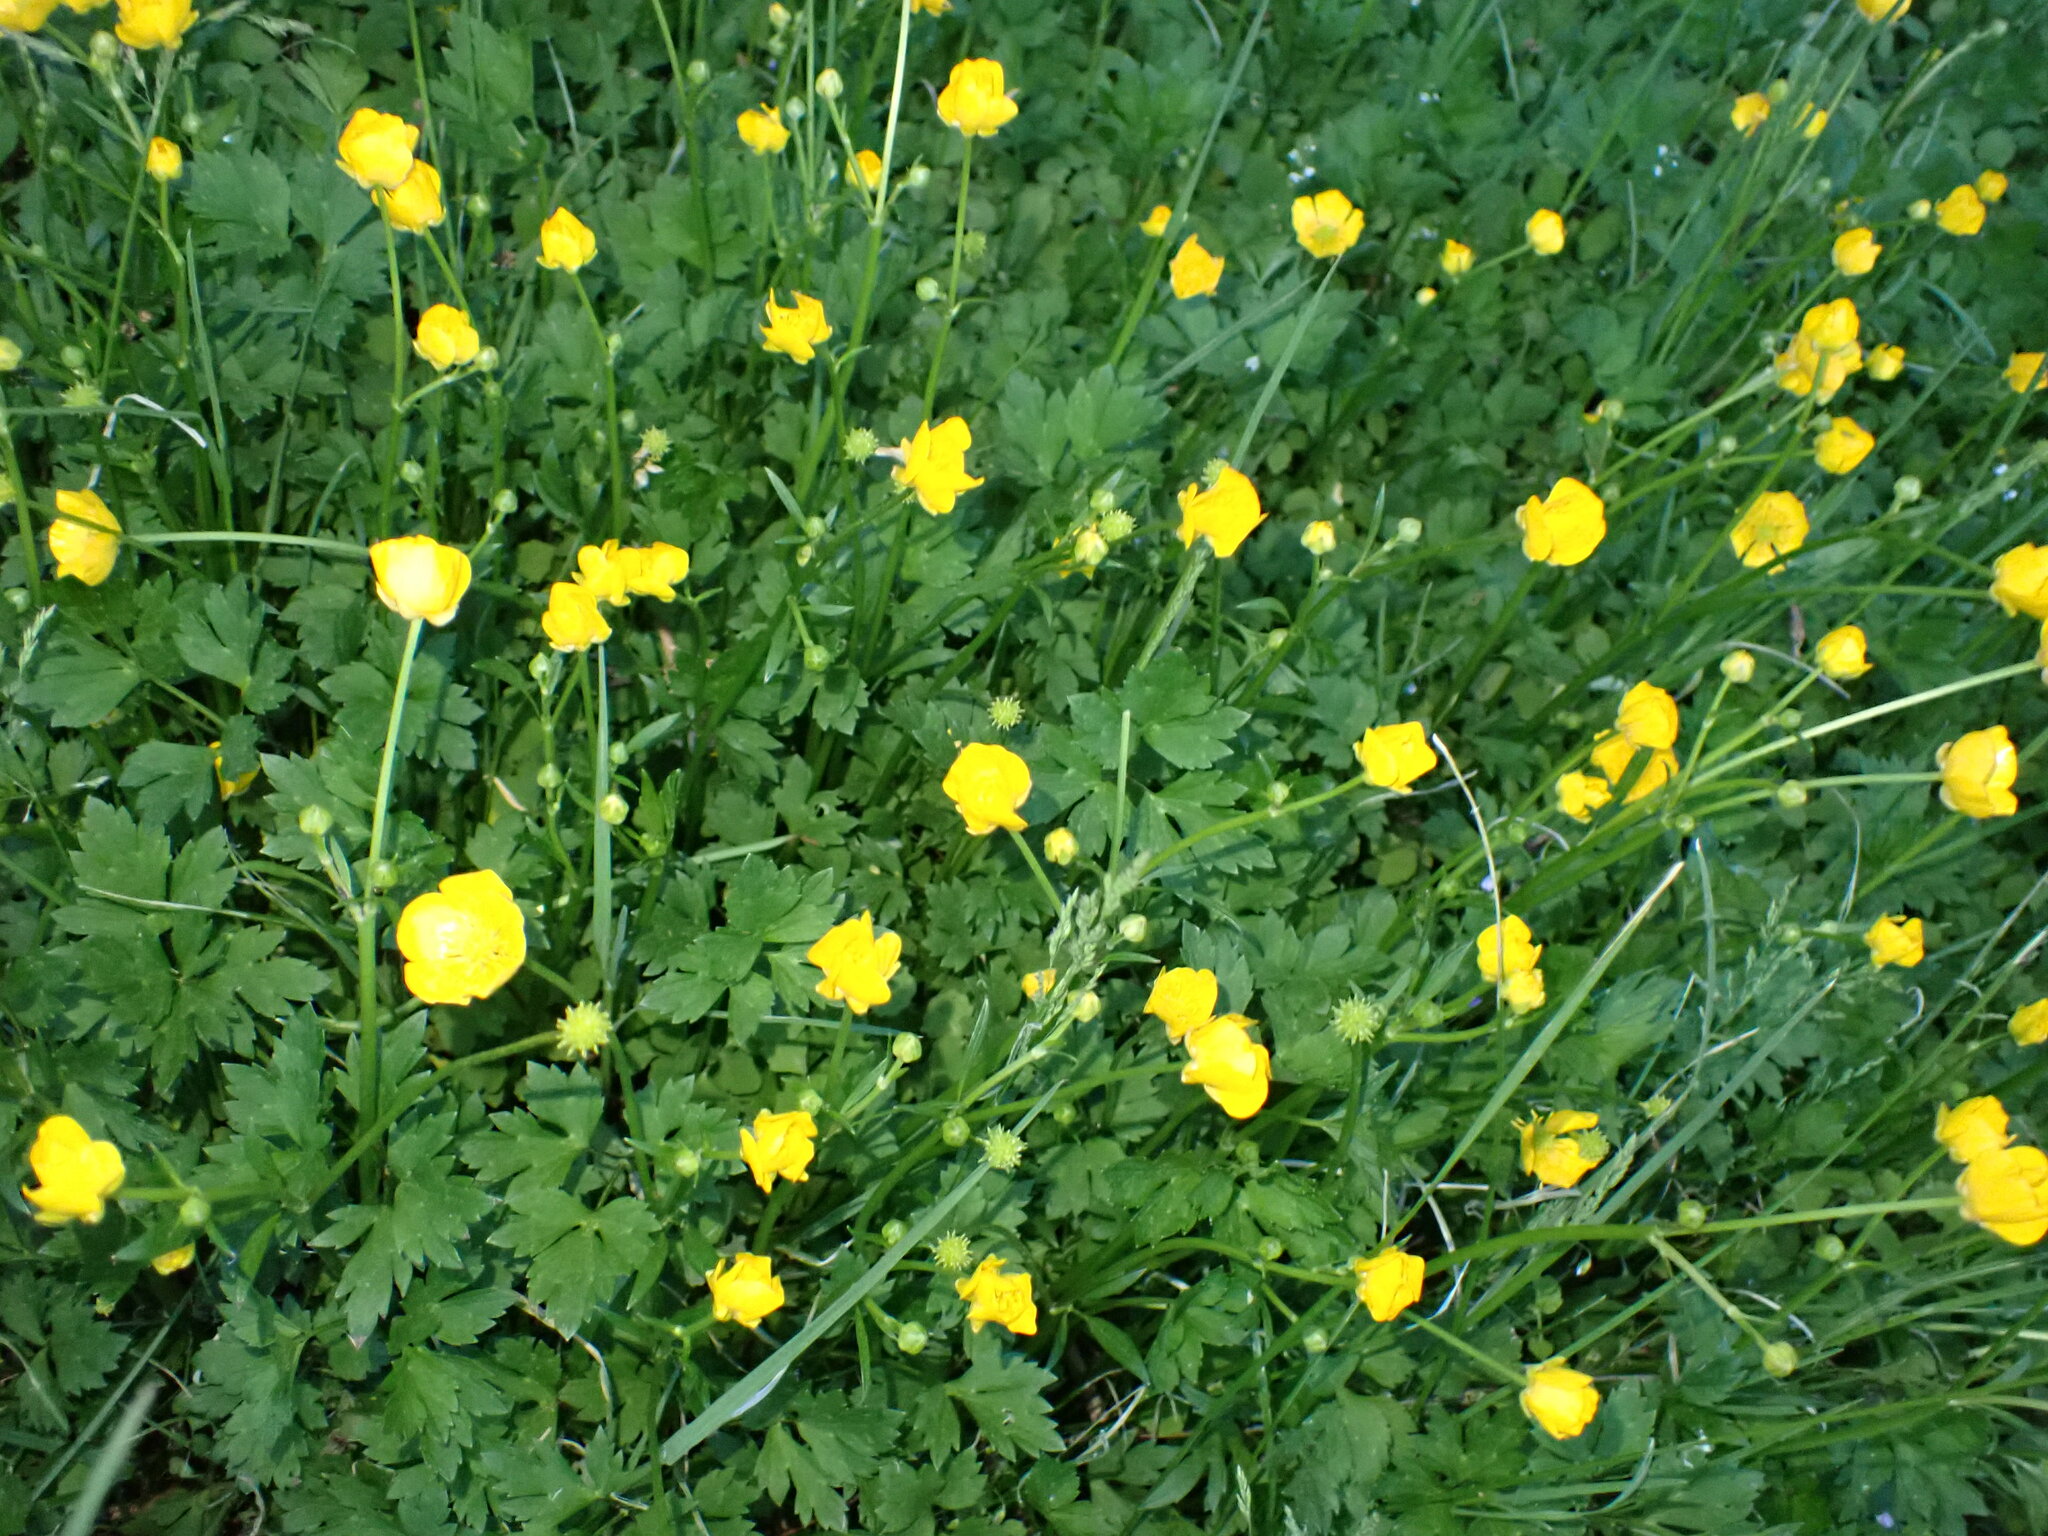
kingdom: Plantae
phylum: Tracheophyta
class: Magnoliopsida
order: Ranunculales
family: Ranunculaceae
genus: Ranunculus
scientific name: Ranunculus repens
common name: Creeping buttercup
